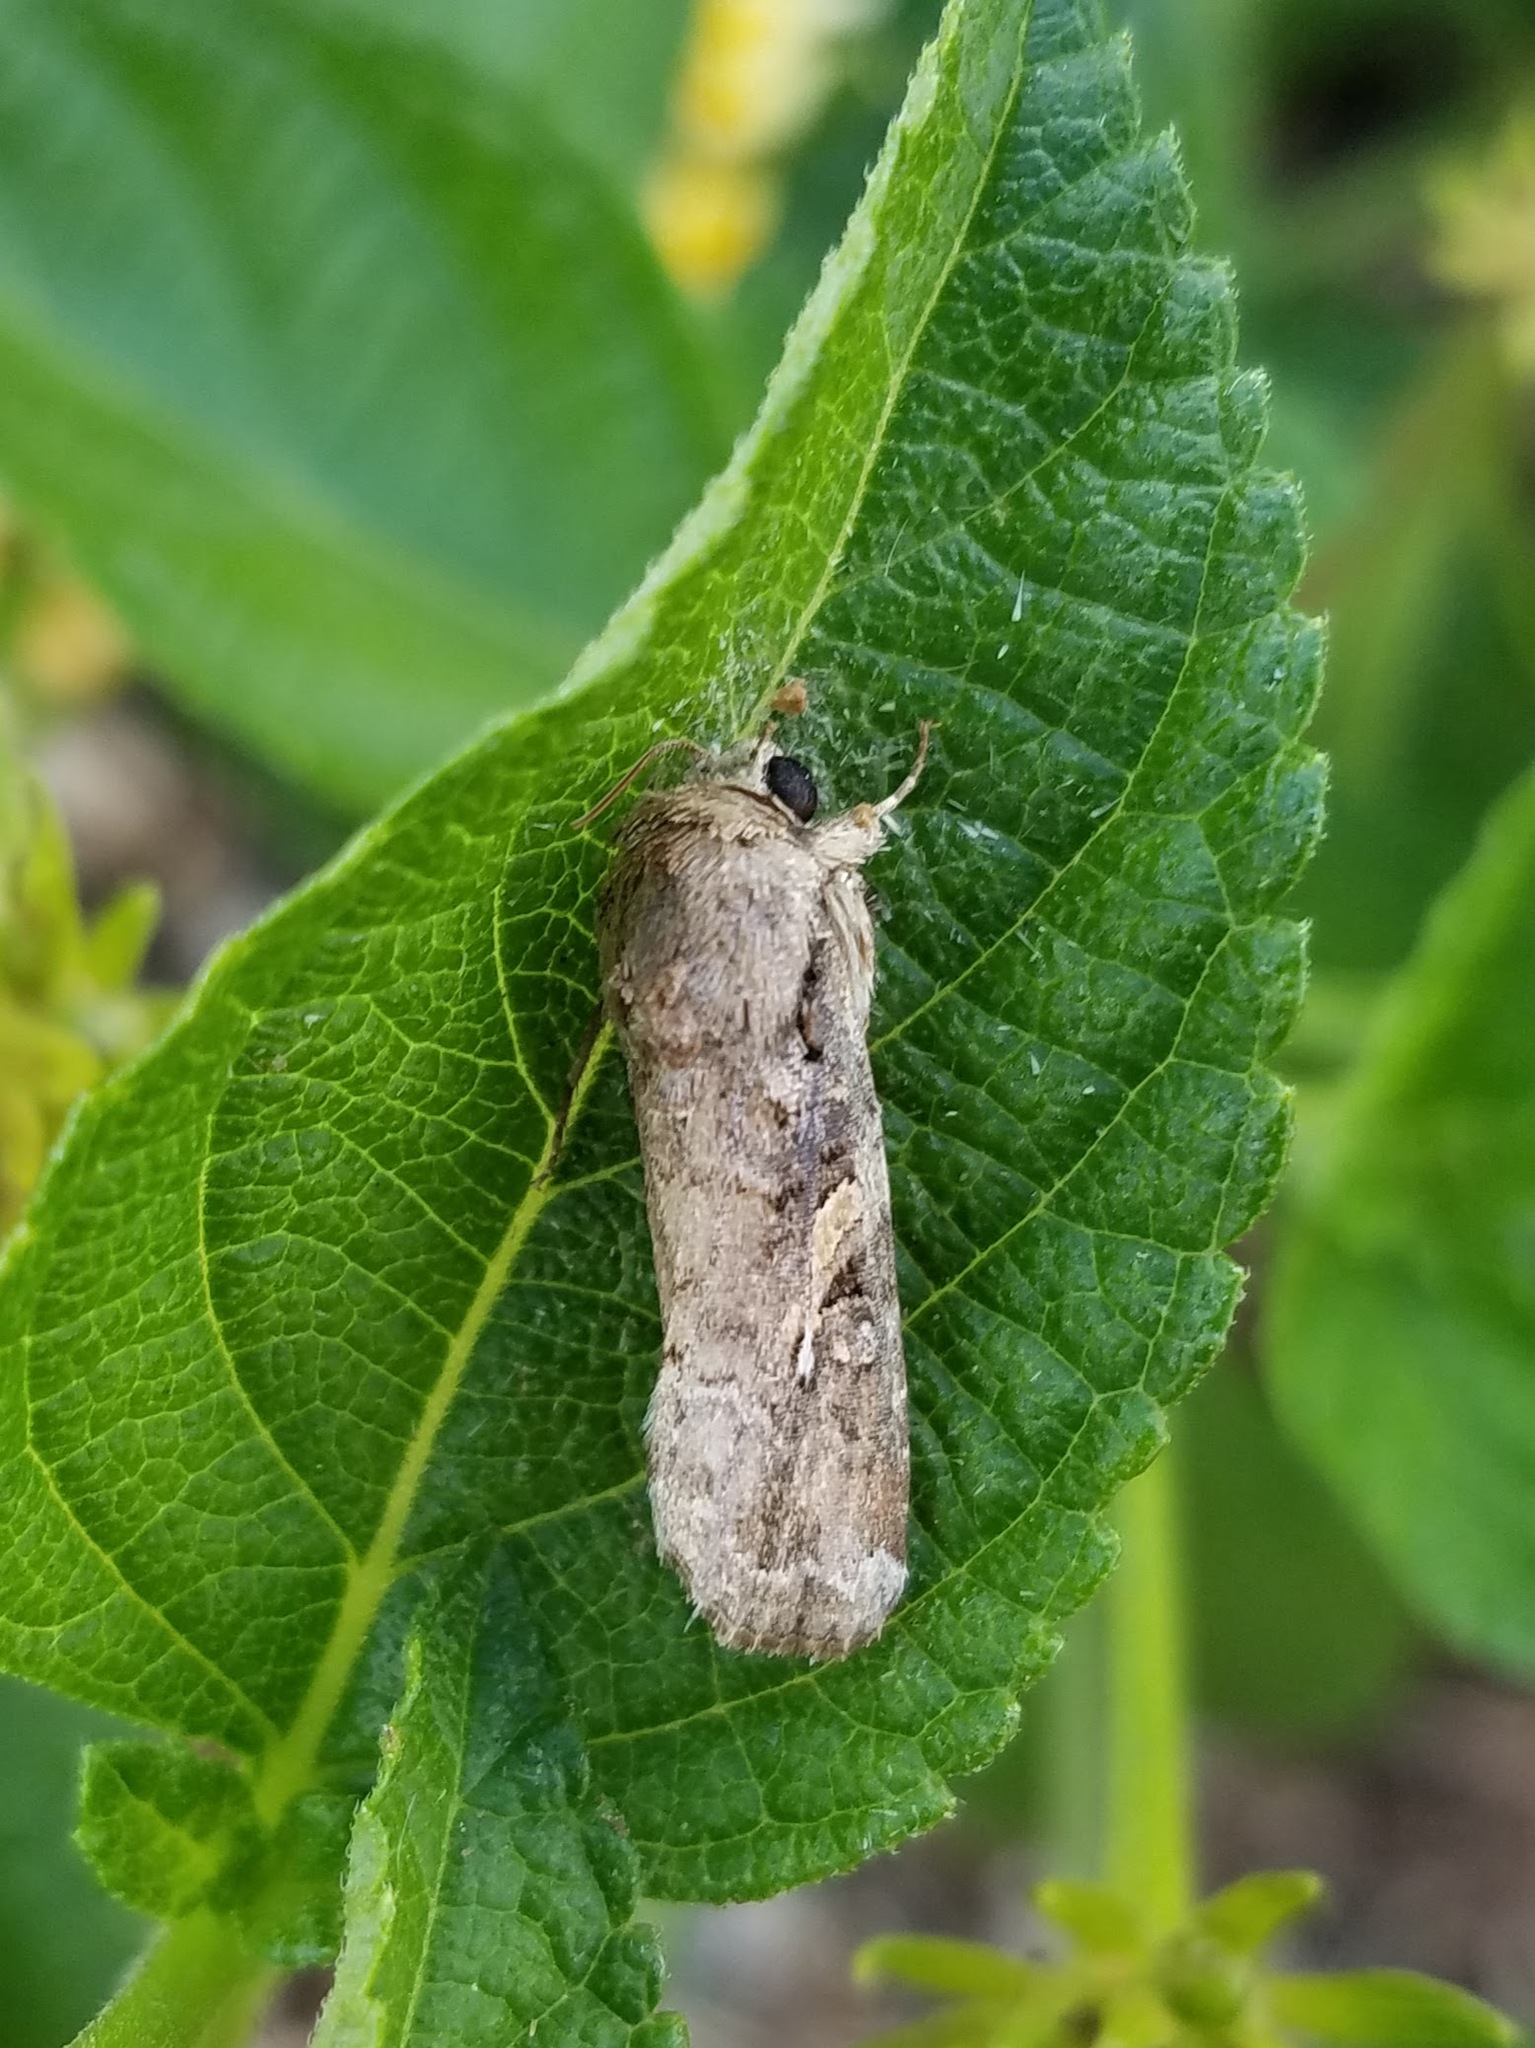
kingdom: Animalia
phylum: Arthropoda
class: Insecta
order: Lepidoptera
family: Noctuidae
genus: Spodoptera
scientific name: Spodoptera frugiperda
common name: Fall armyworm
